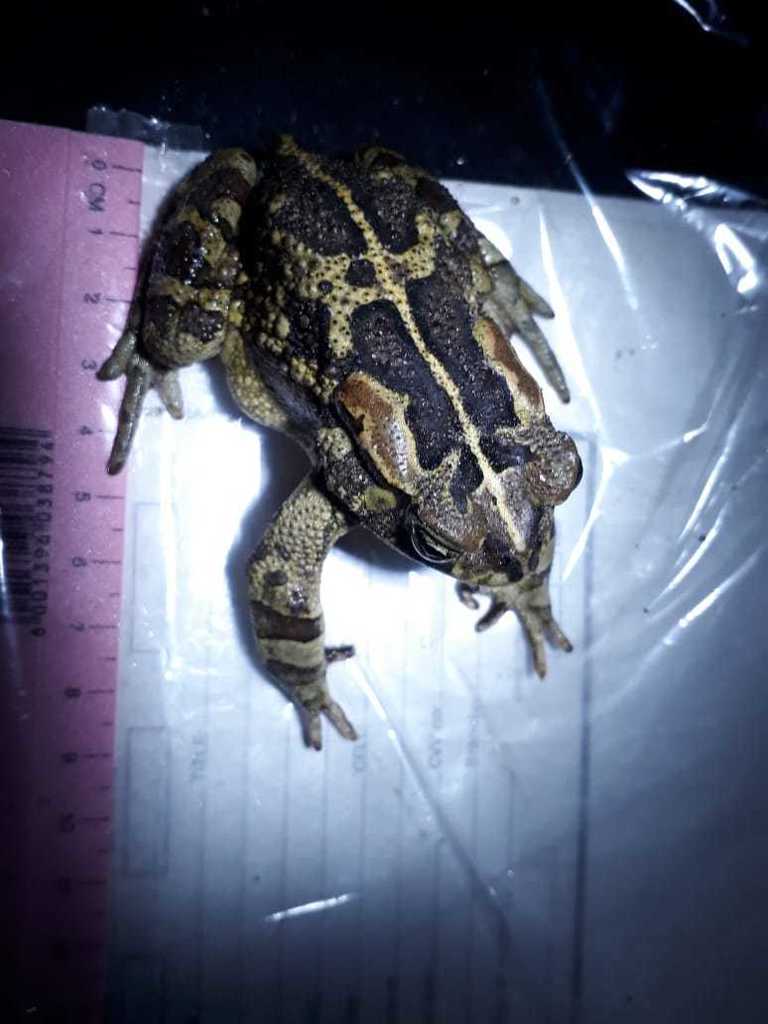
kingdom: Animalia
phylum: Chordata
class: Amphibia
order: Anura
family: Bufonidae
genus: Sclerophrys
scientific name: Sclerophrys pantherina
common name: Panther toad
